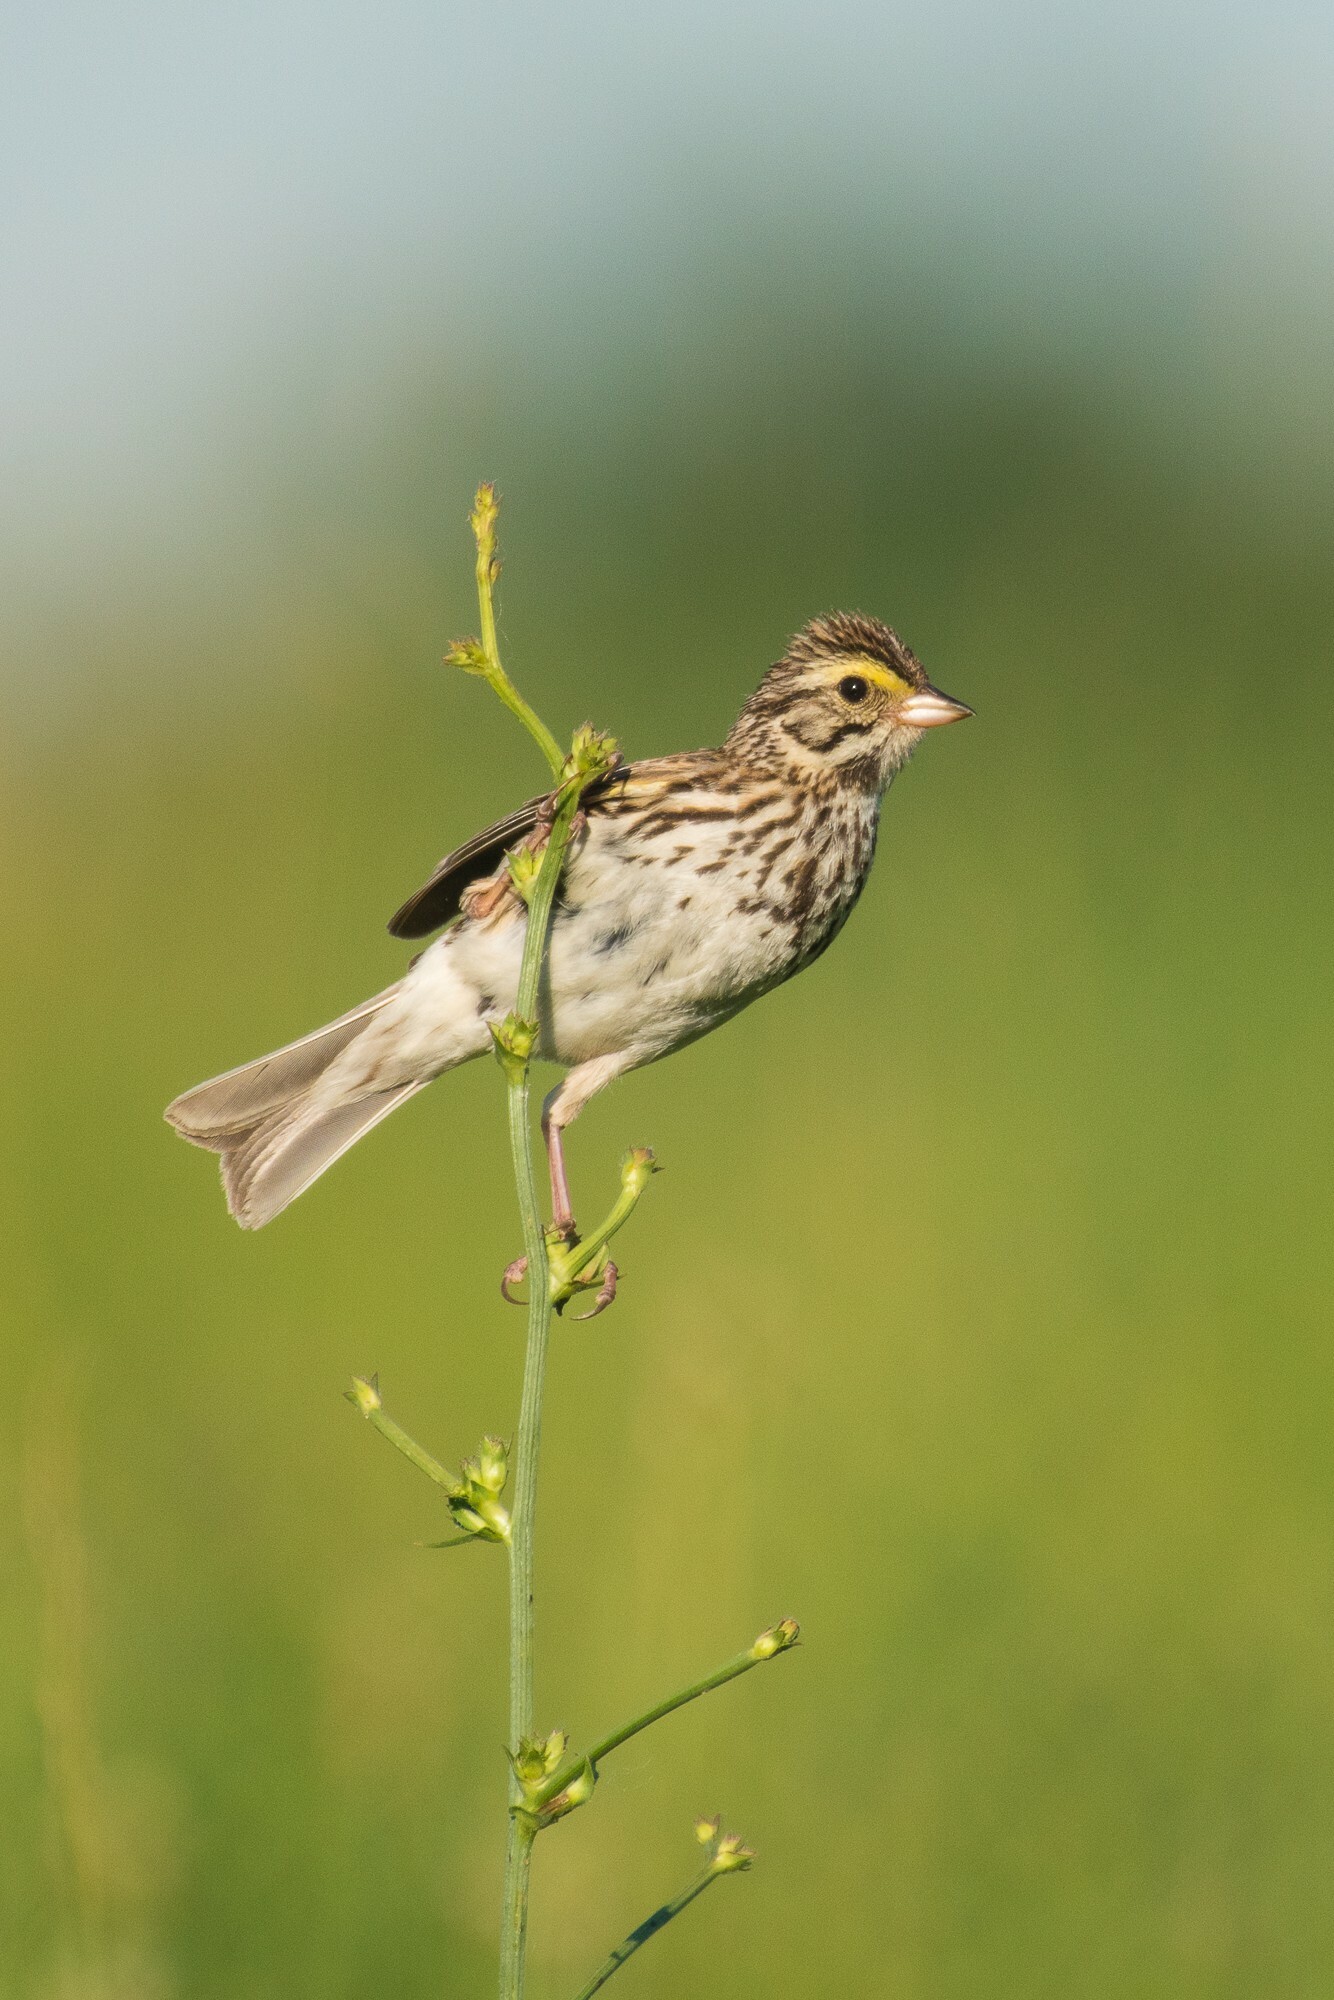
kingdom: Animalia
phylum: Chordata
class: Aves
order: Passeriformes
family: Passerellidae
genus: Passerculus
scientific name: Passerculus sandwichensis
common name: Savannah sparrow
